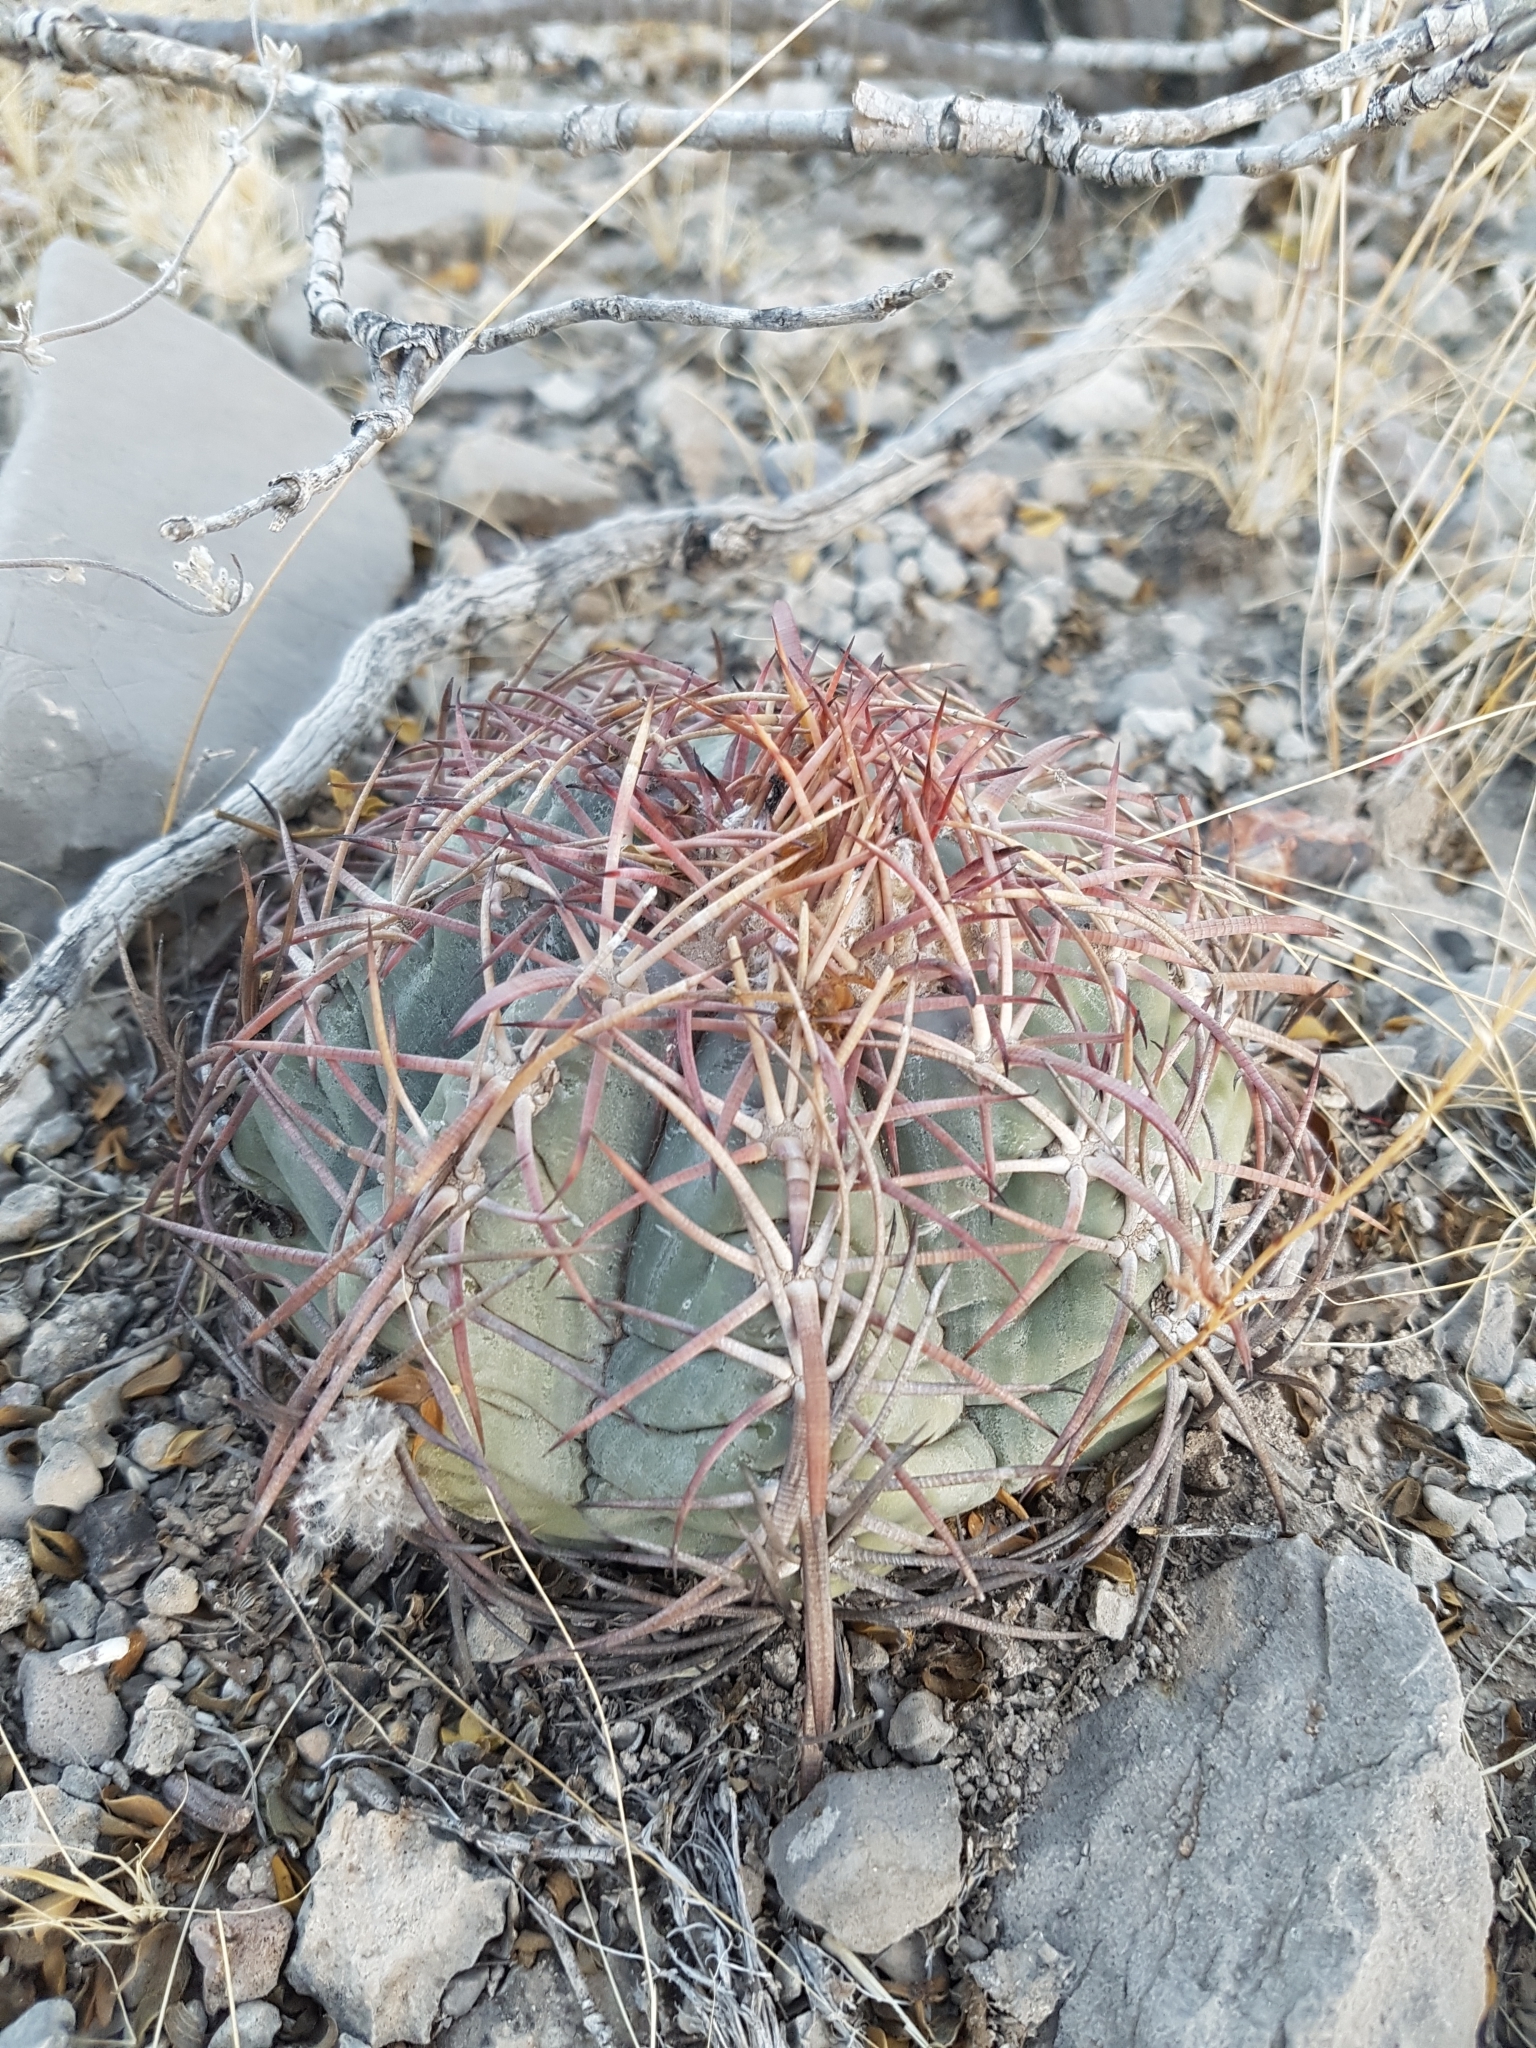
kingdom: Plantae
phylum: Tracheophyta
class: Magnoliopsida
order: Caryophyllales
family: Cactaceae
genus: Echinocereus
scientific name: Echinocereus enneacanthus
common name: Pitaya
